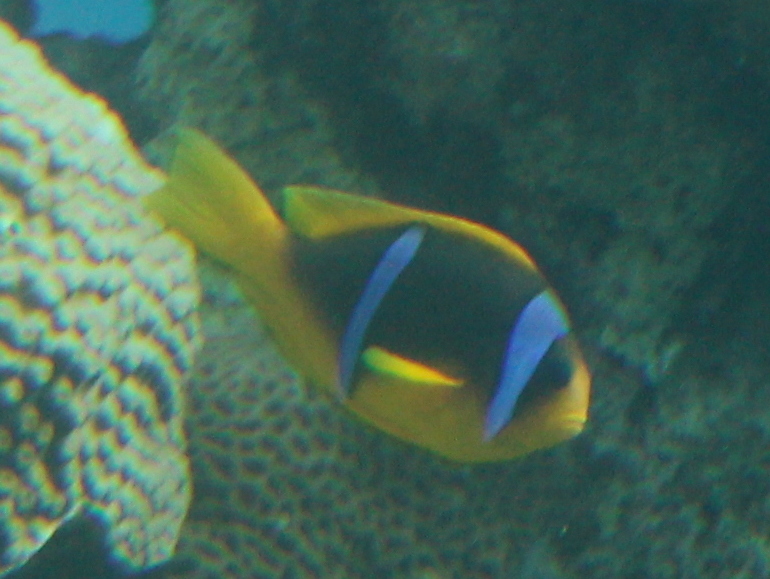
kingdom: Animalia
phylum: Chordata
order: Perciformes
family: Pomacentridae
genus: Amphiprion
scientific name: Amphiprion bicinctus
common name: Two-banded anemonefish
